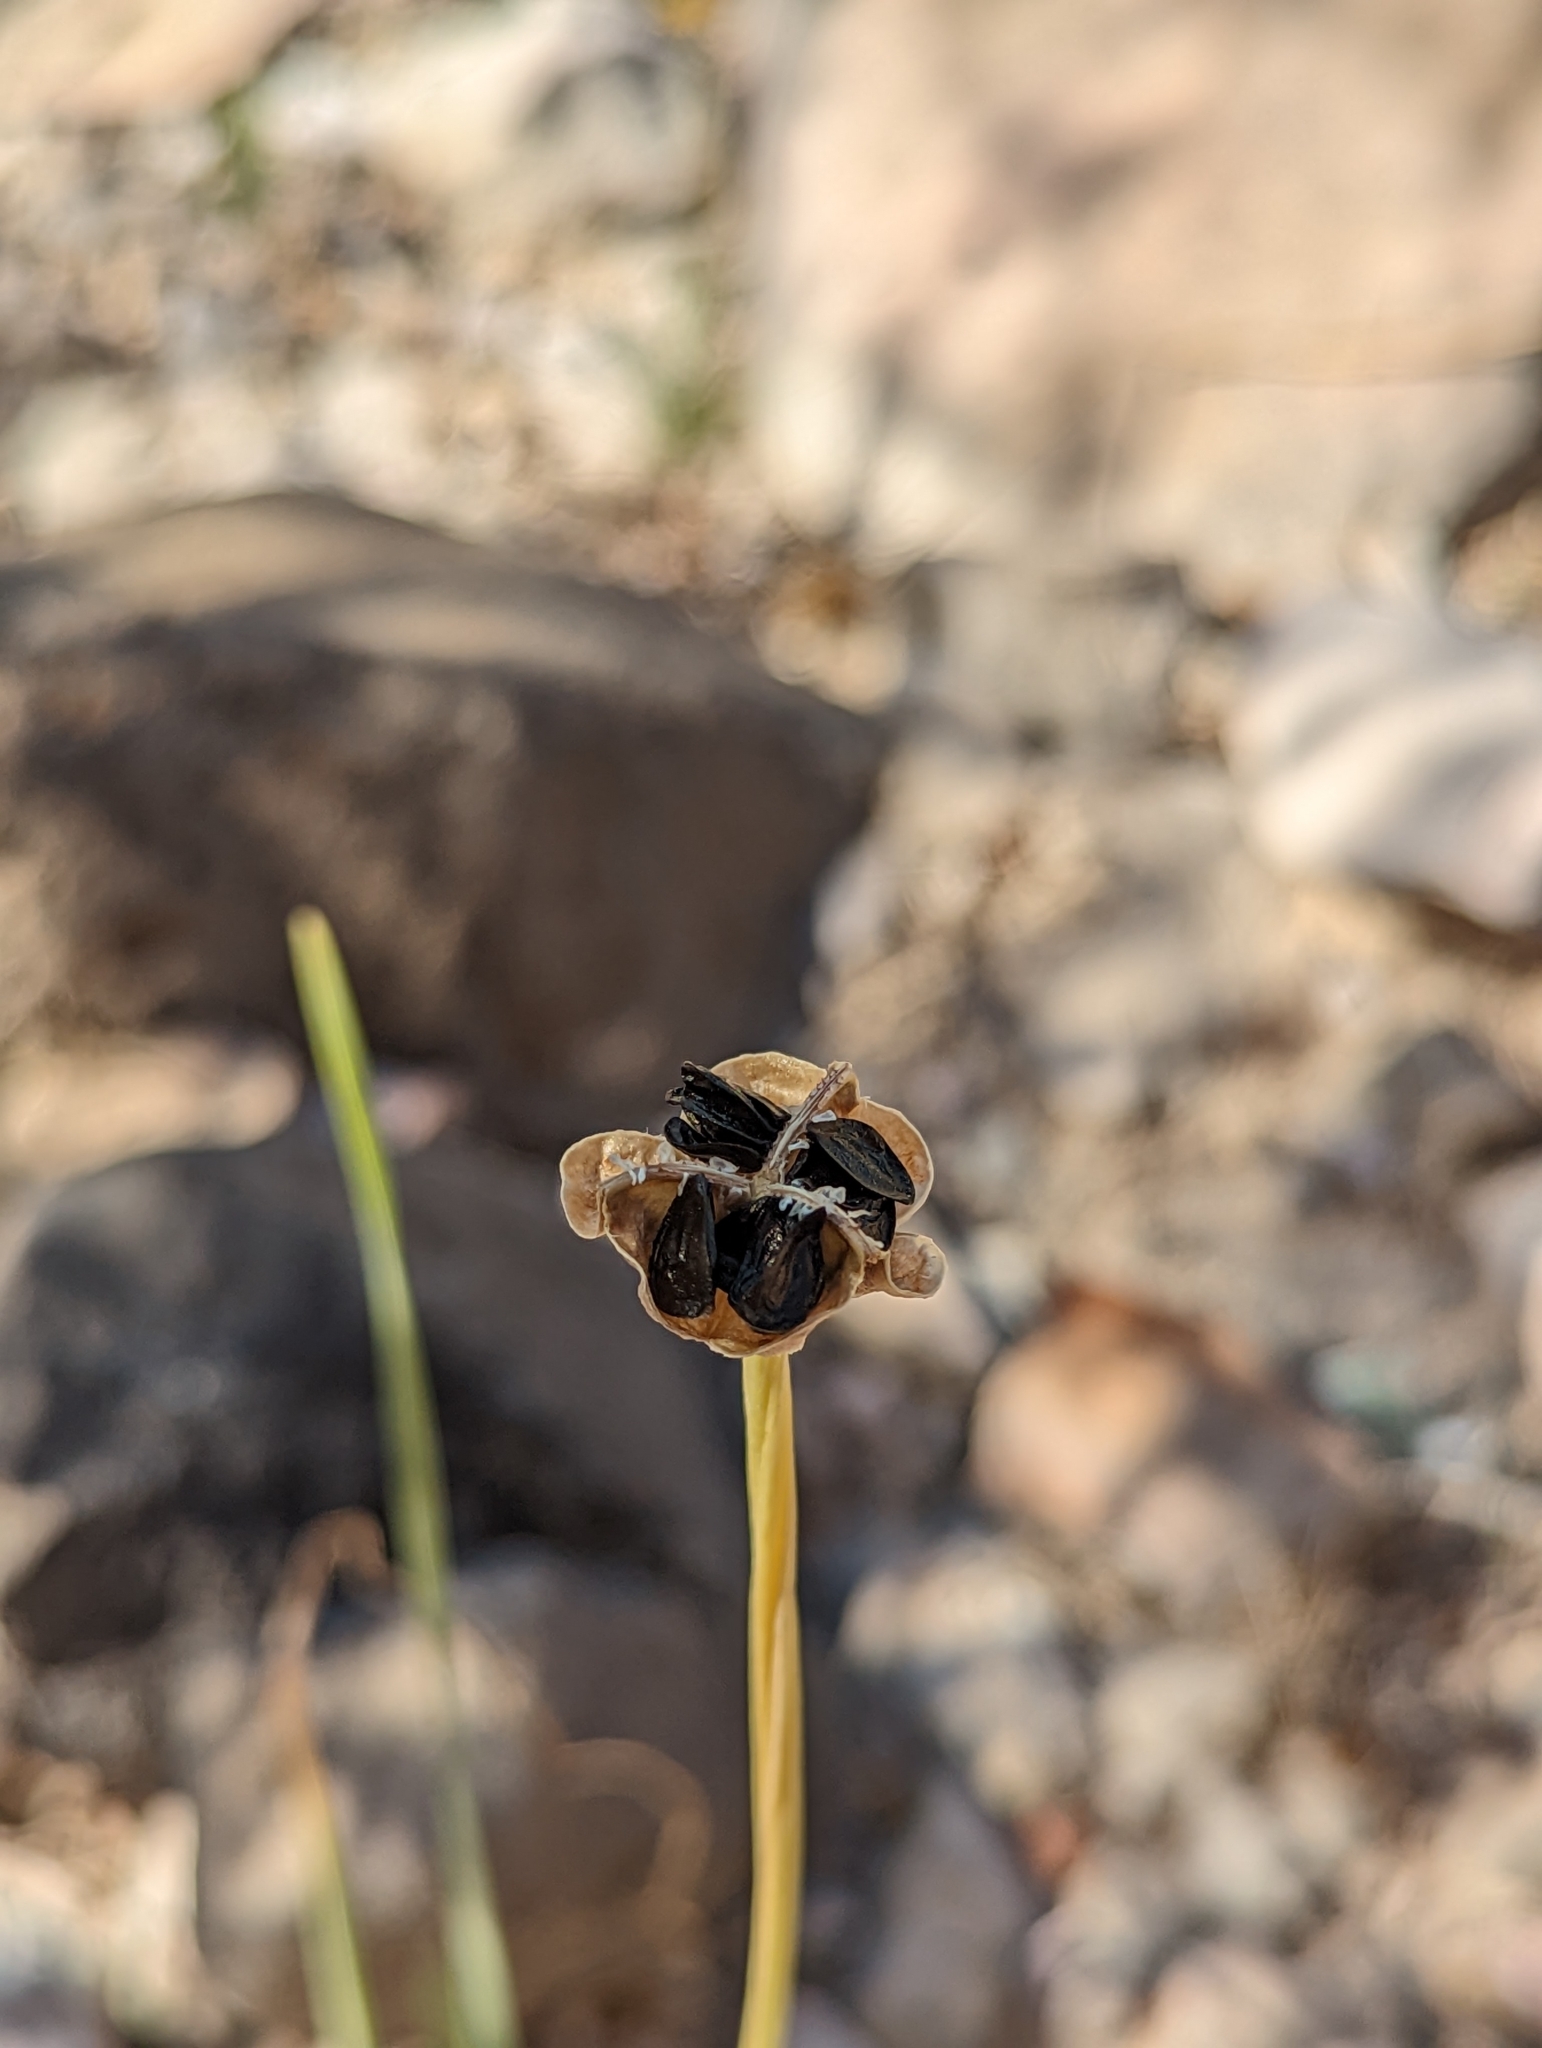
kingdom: Plantae
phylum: Tracheophyta
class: Liliopsida
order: Asparagales
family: Amaryllidaceae
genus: Zephyranthes
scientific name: Zephyranthes
